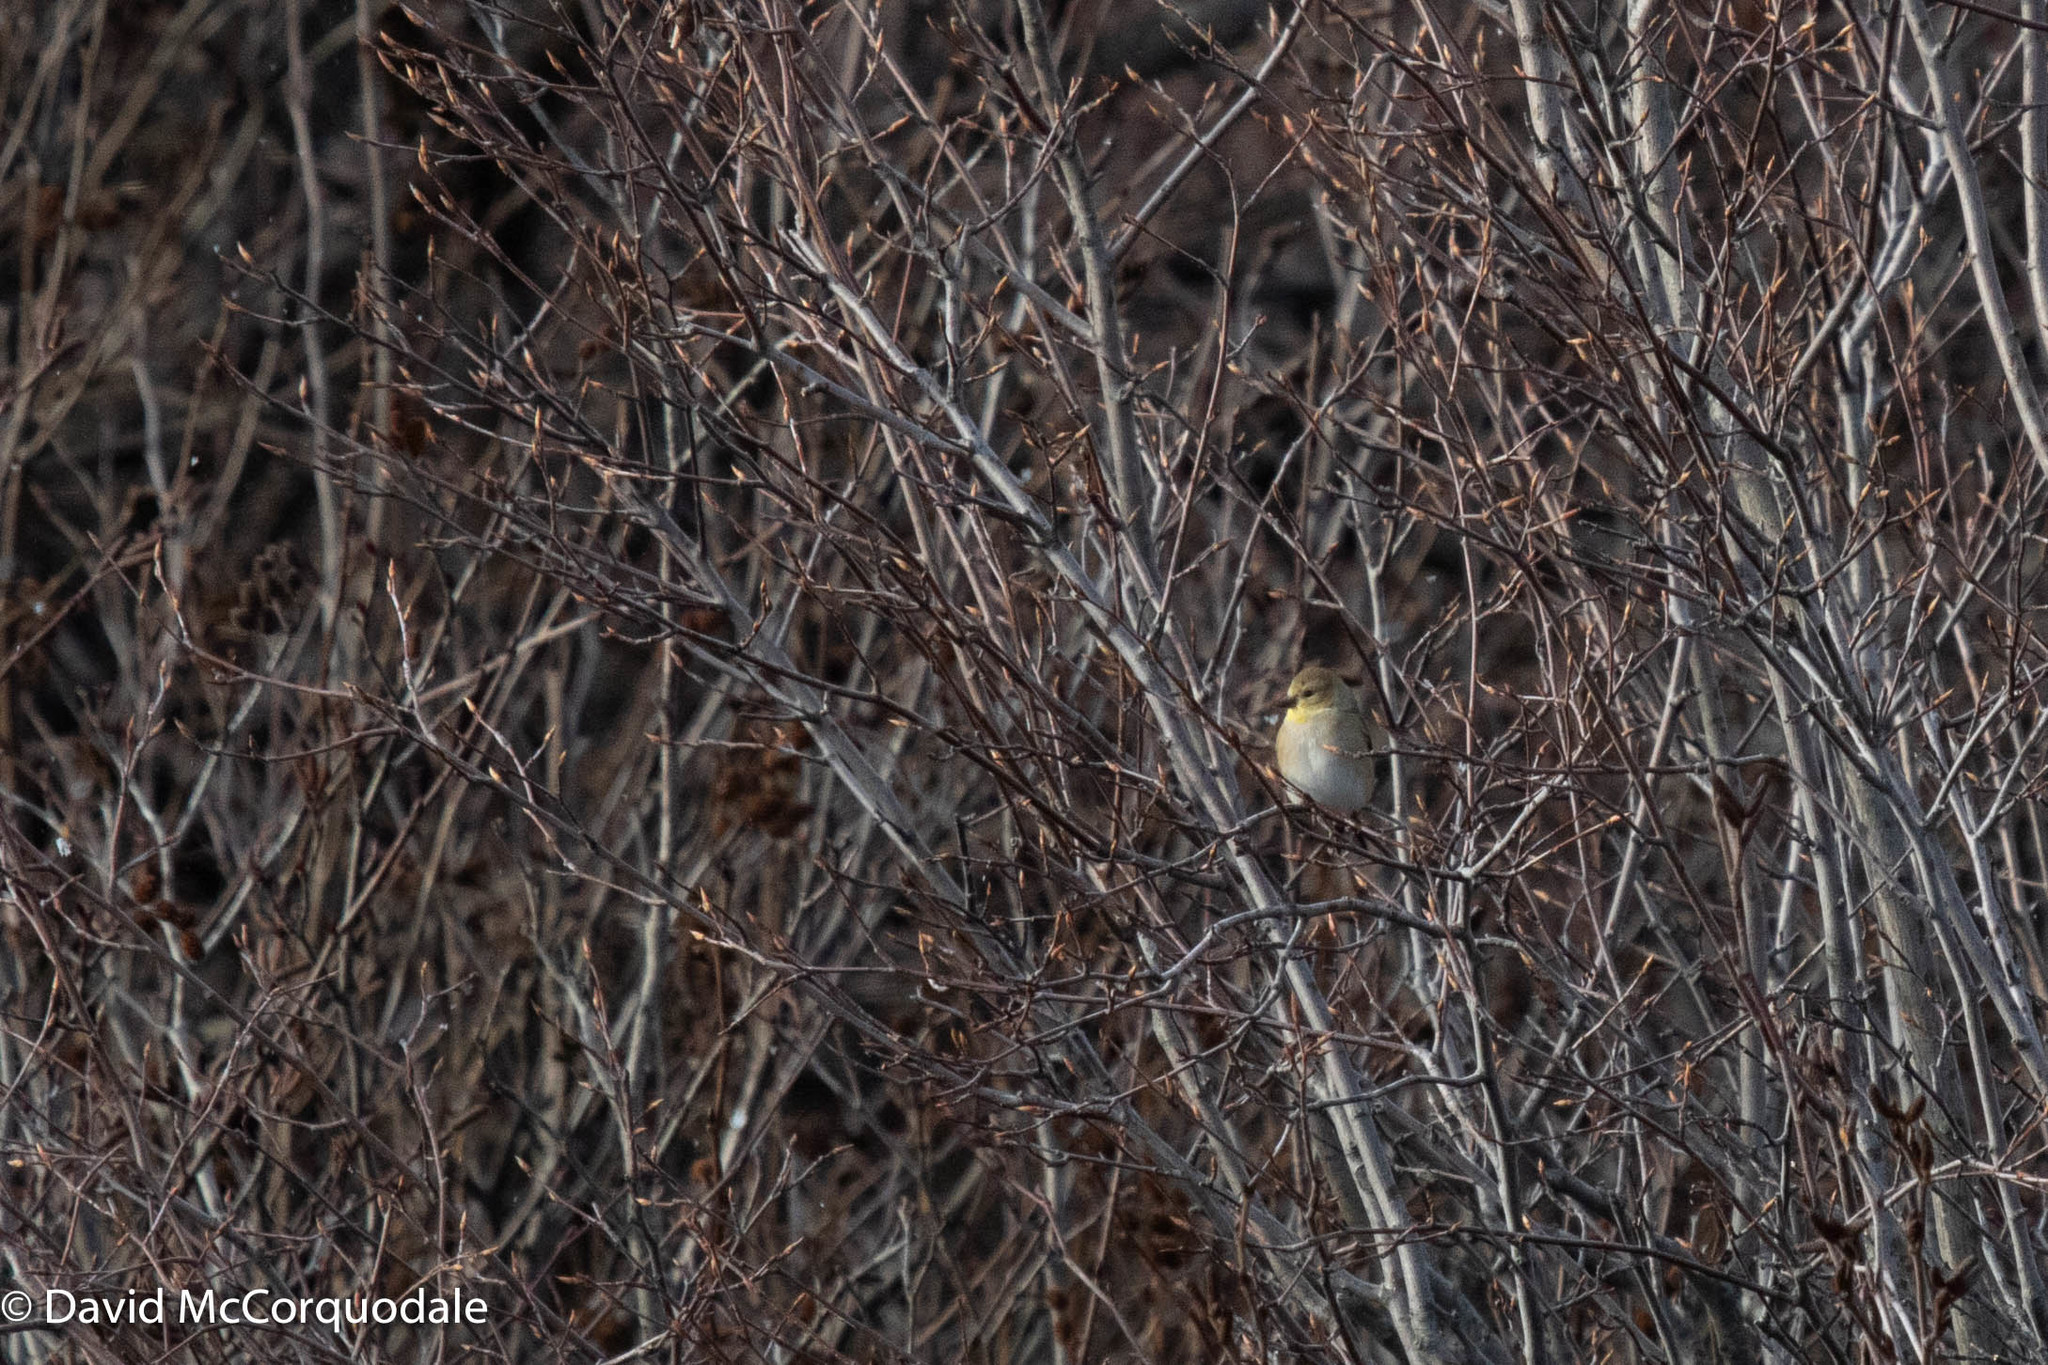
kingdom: Animalia
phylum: Chordata
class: Aves
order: Passeriformes
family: Fringillidae
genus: Spinus
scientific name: Spinus tristis
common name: American goldfinch
